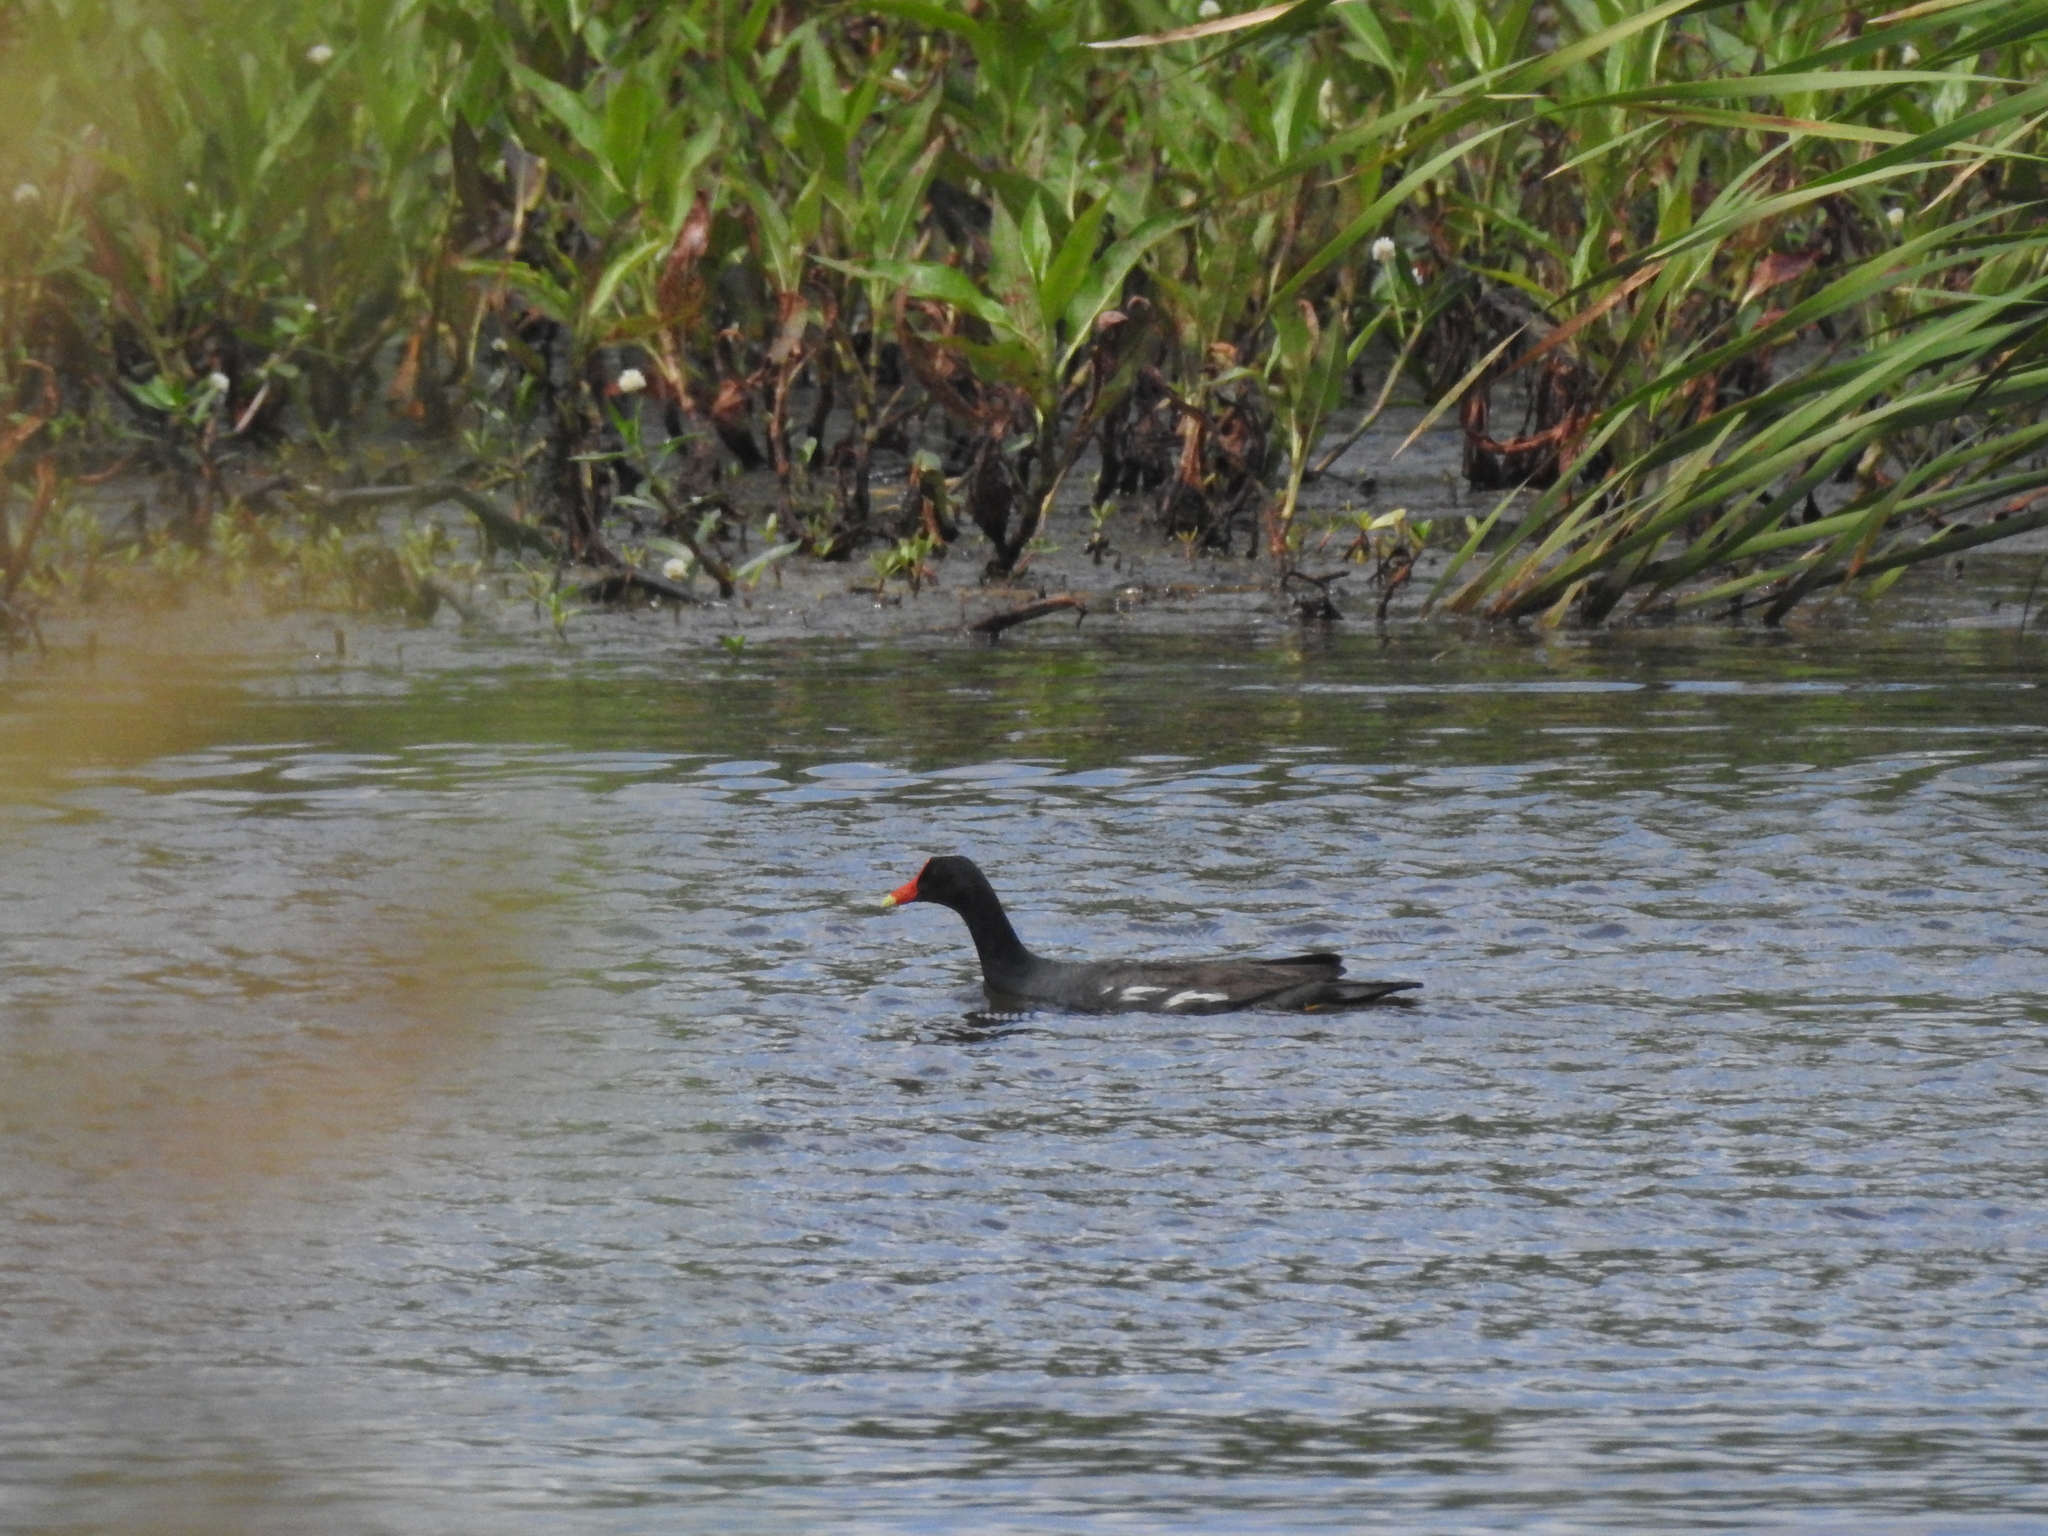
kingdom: Animalia
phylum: Chordata
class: Aves
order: Gruiformes
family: Rallidae
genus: Gallinula
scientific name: Gallinula chloropus
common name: Common moorhen
